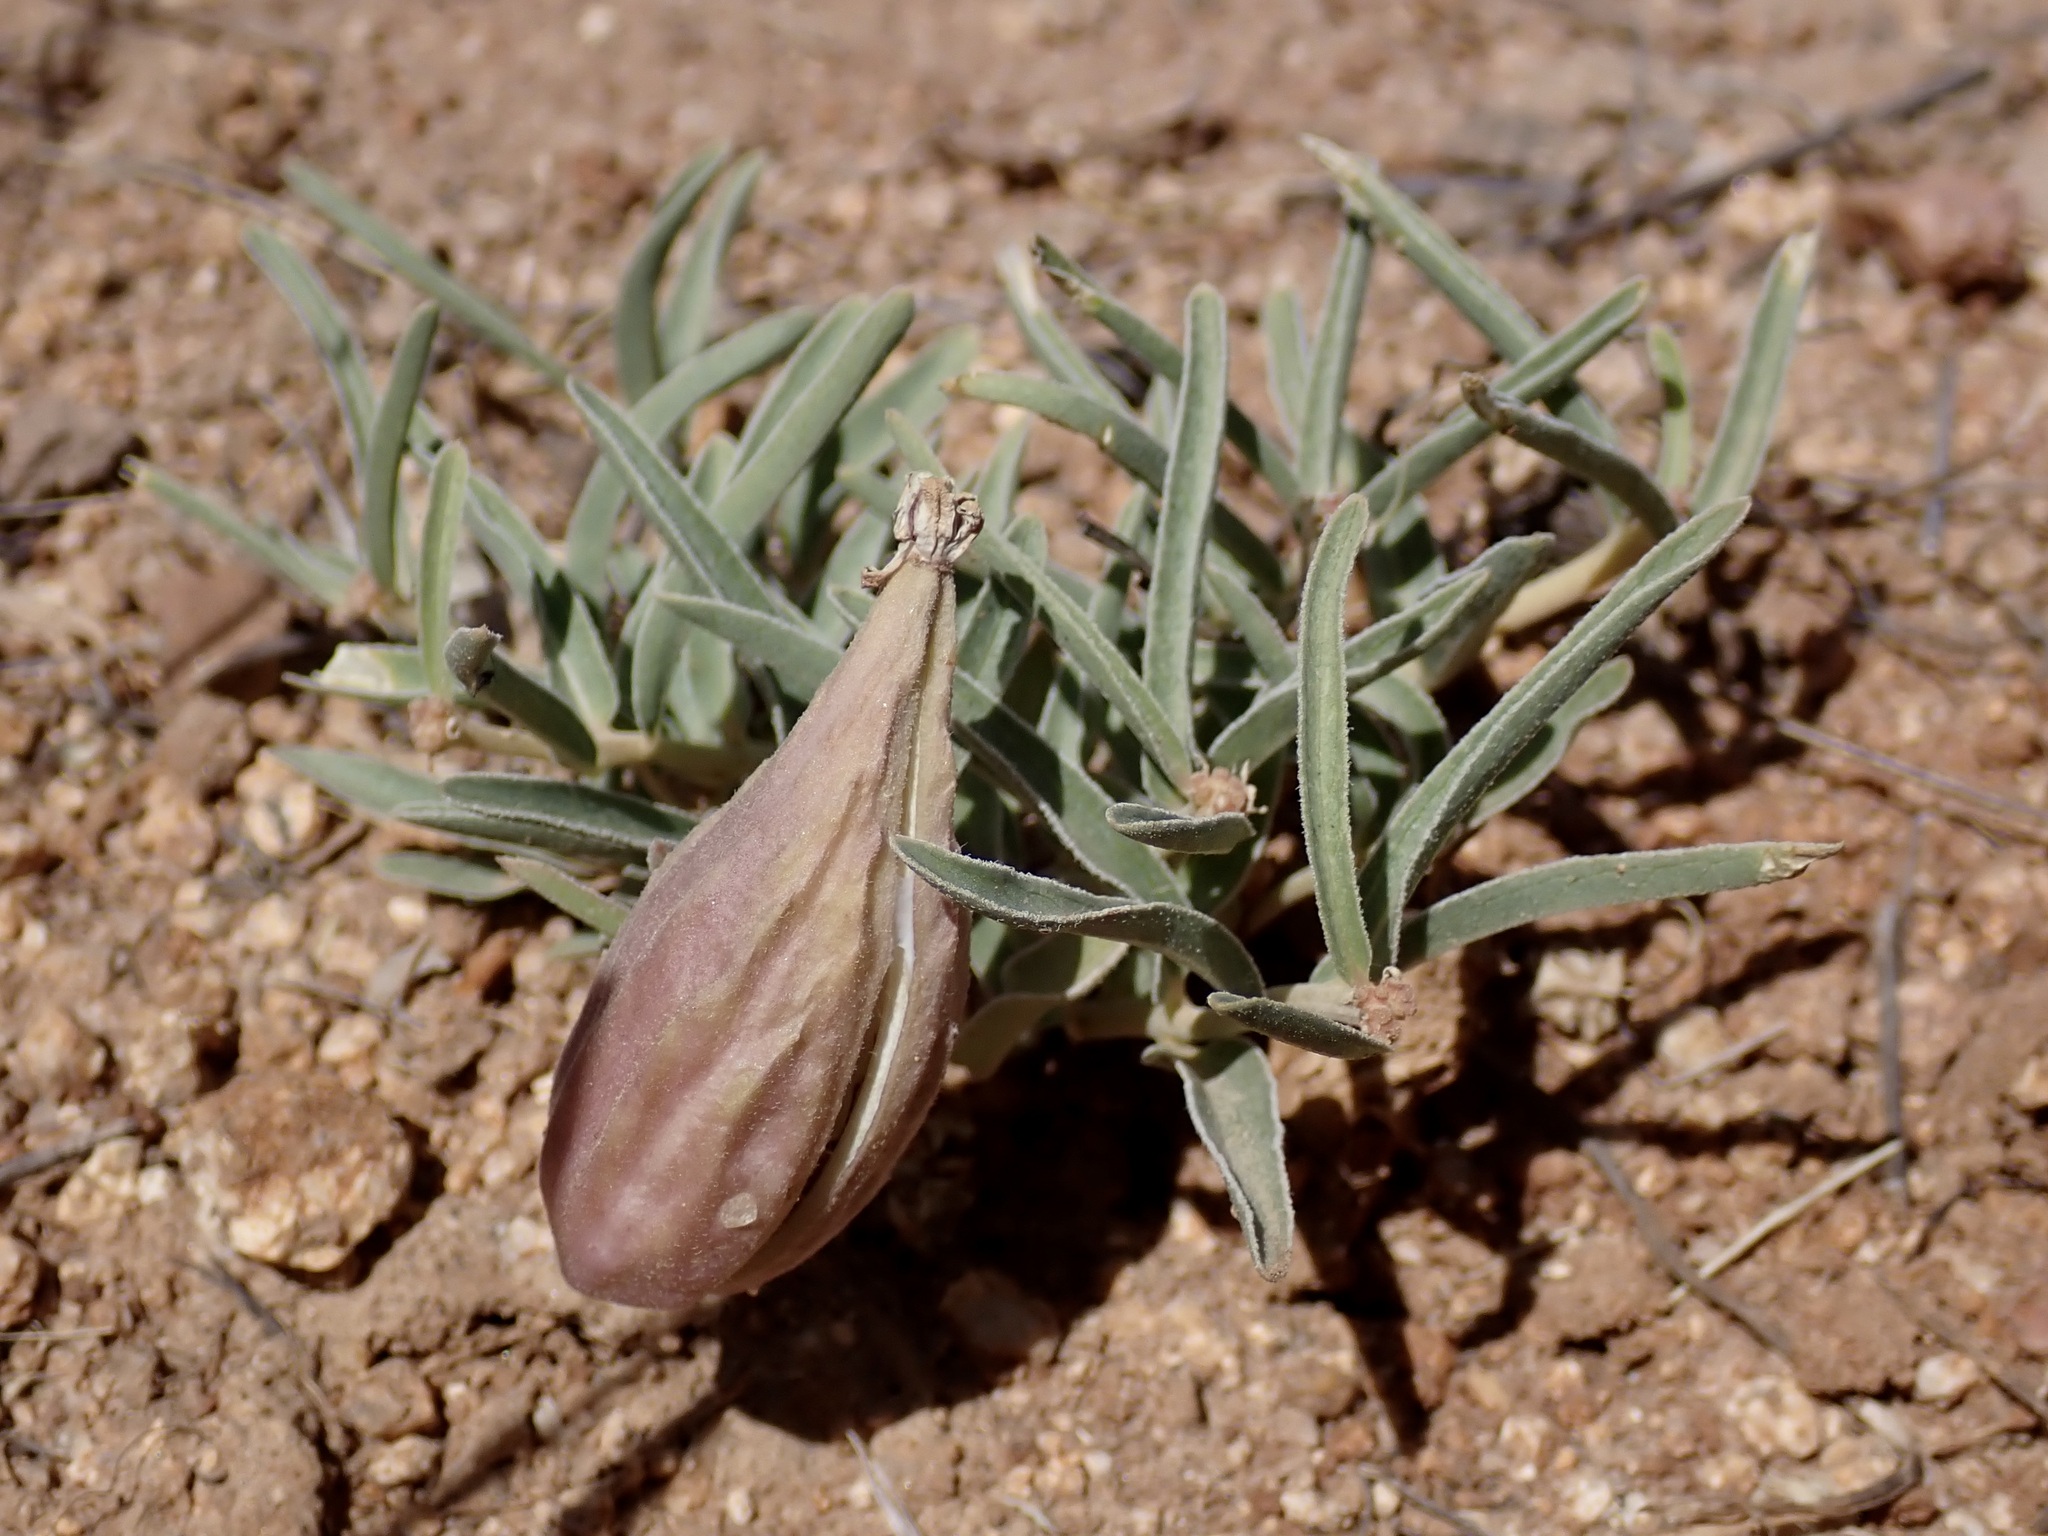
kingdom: Plantae
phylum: Tracheophyta
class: Magnoliopsida
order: Gentianales
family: Apocynaceae
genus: Asclepias
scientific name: Asclepias involucrata
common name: Dwarf milkweed
